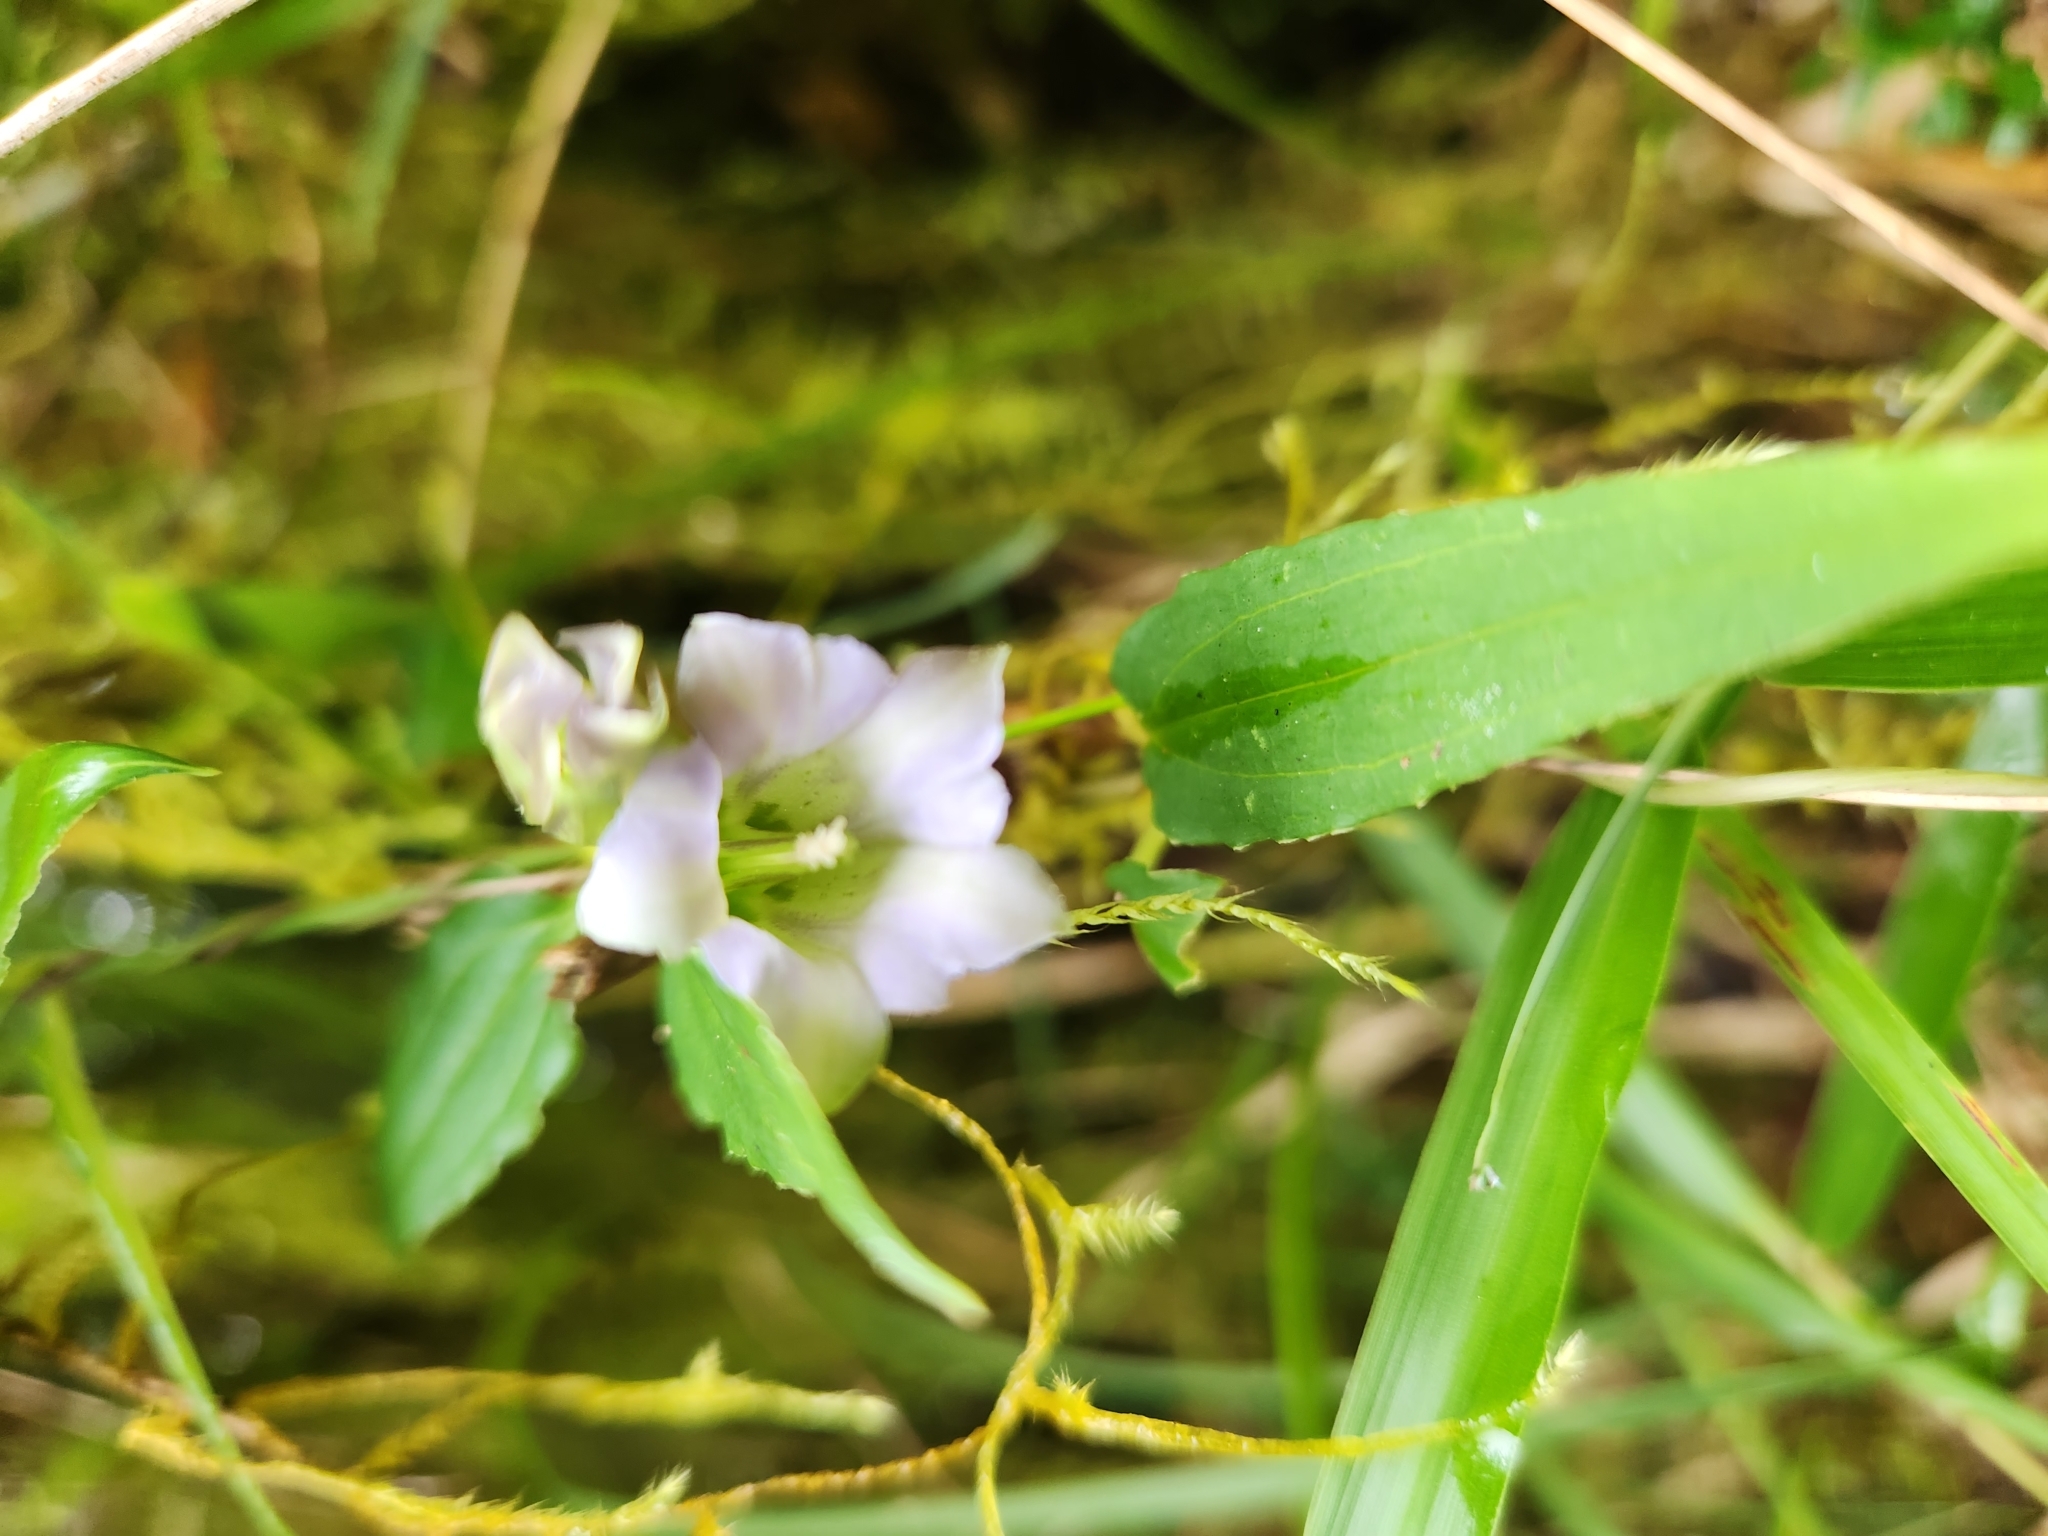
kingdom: Plantae
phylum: Tracheophyta
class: Magnoliopsida
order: Gentianales
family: Gentianaceae
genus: Tripterospermum
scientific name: Tripterospermum lanceolatum
